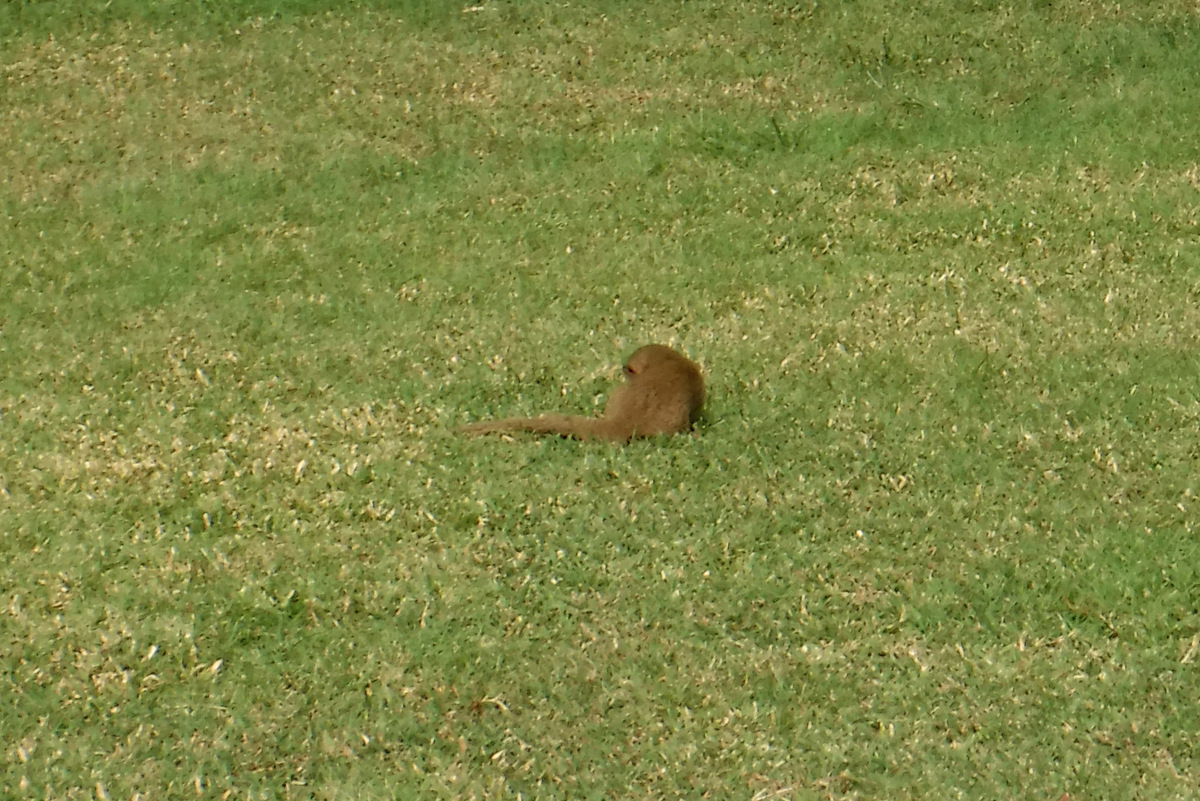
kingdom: Animalia
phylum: Chordata
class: Mammalia
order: Carnivora
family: Herpestidae
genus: Herpestes
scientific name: Herpestes javanicus
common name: Small asian mongoose
